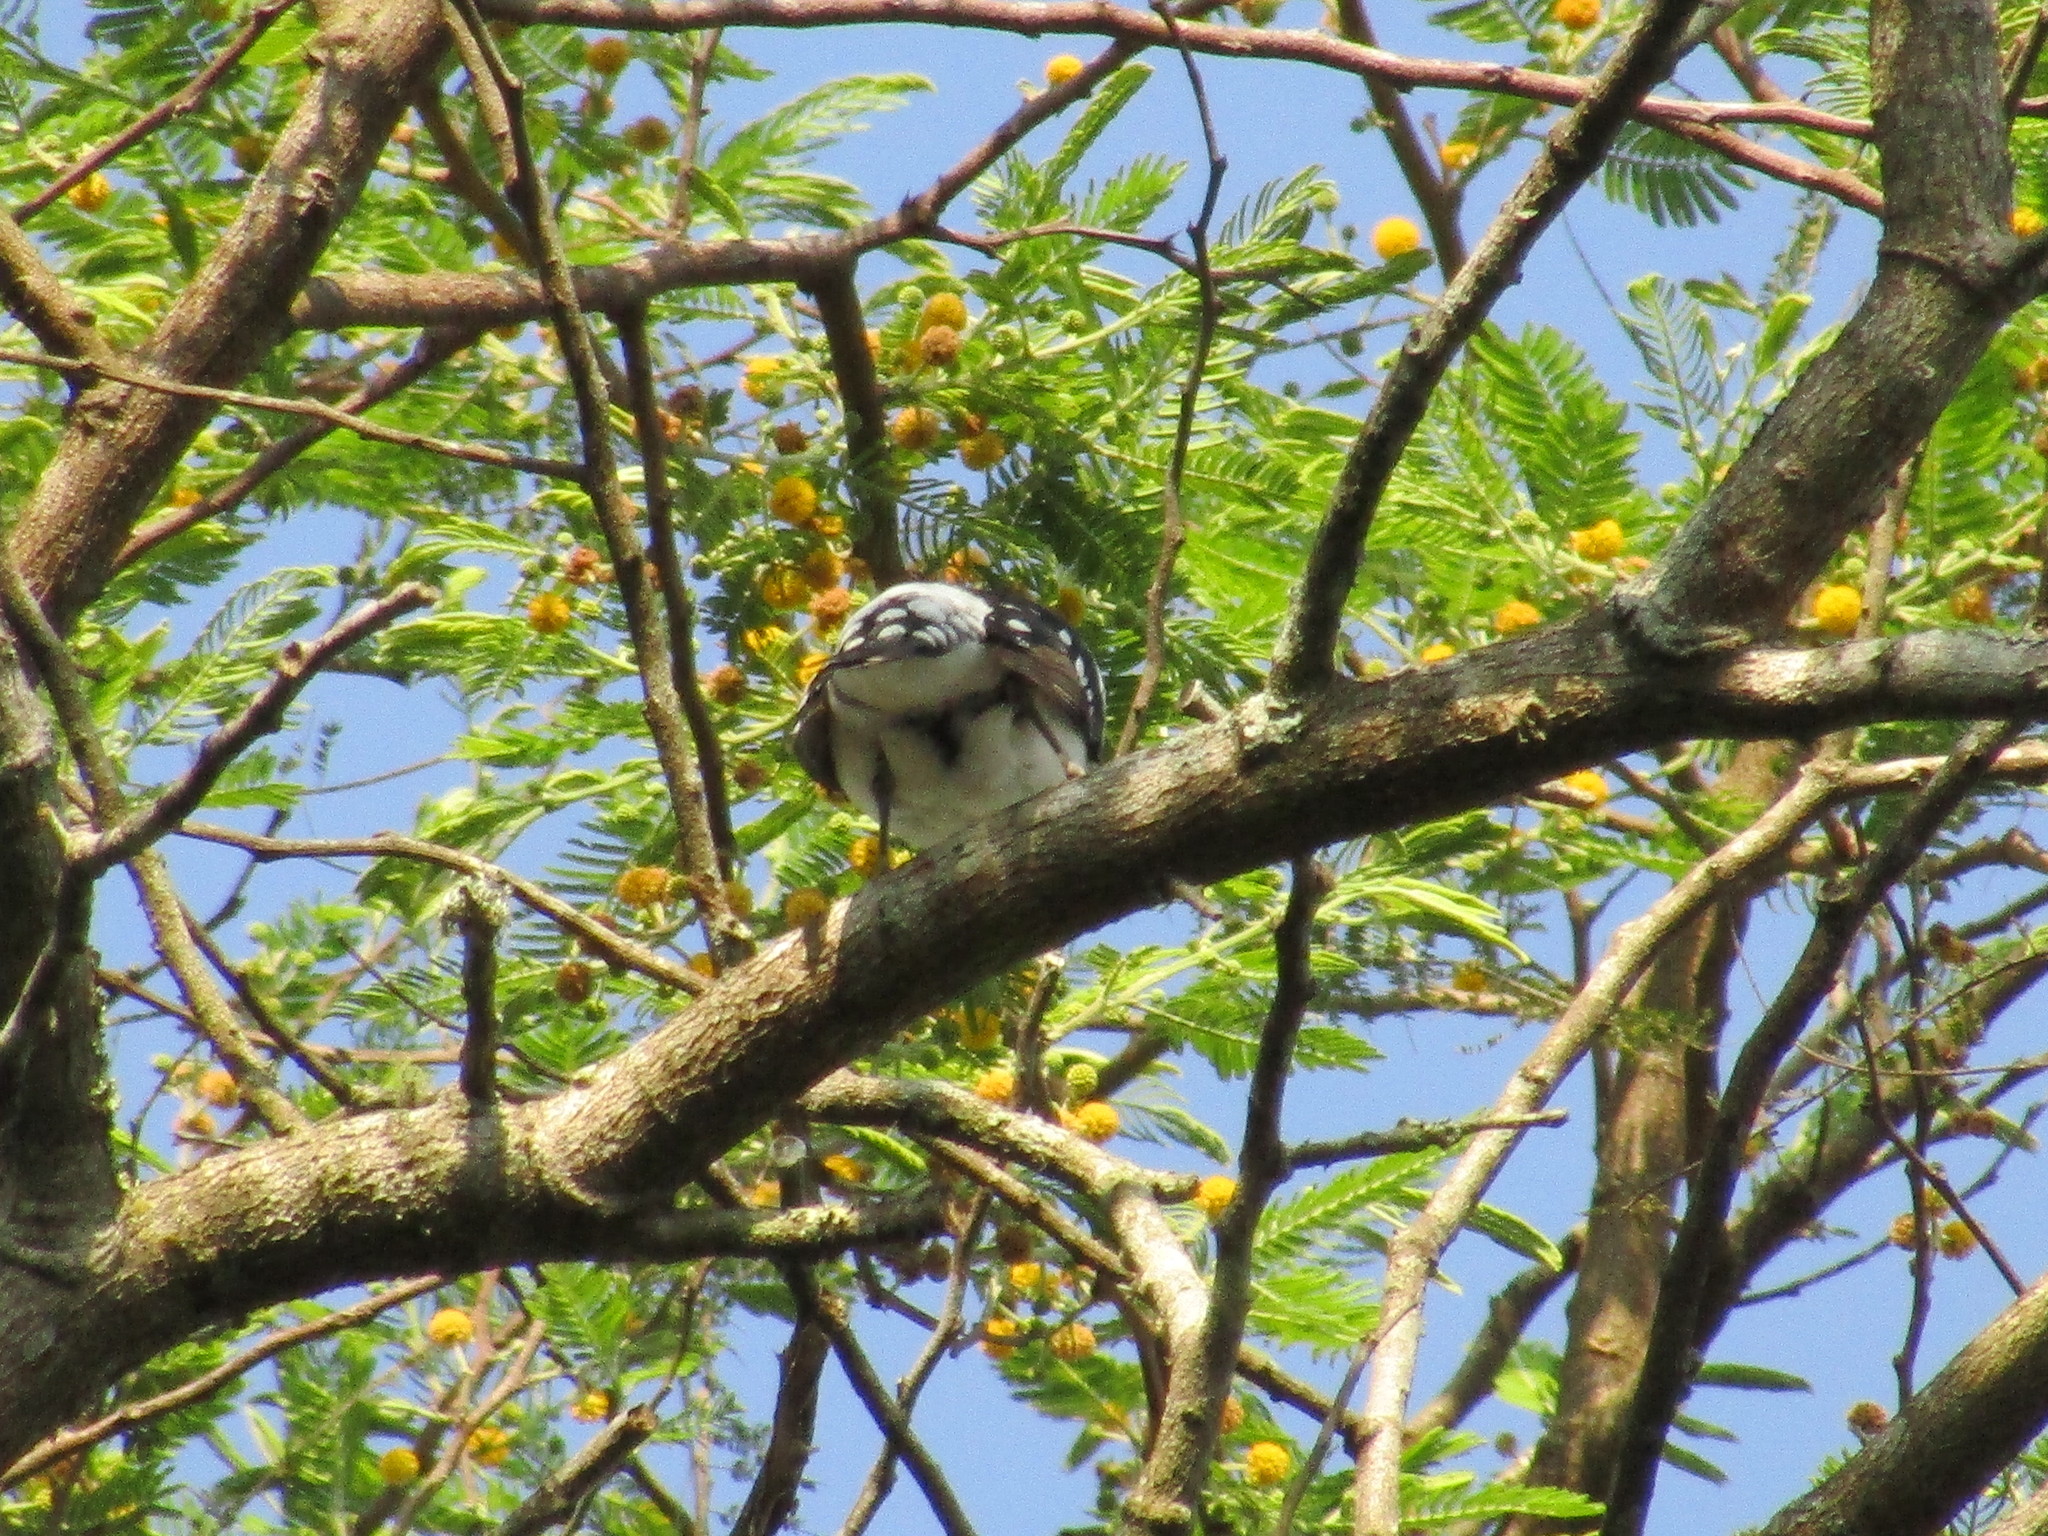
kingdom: Animalia
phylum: Chordata
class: Aves
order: Passeriformes
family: Cardinalidae
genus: Pheucticus
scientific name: Pheucticus ludovicianus
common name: Rose-breasted grosbeak
